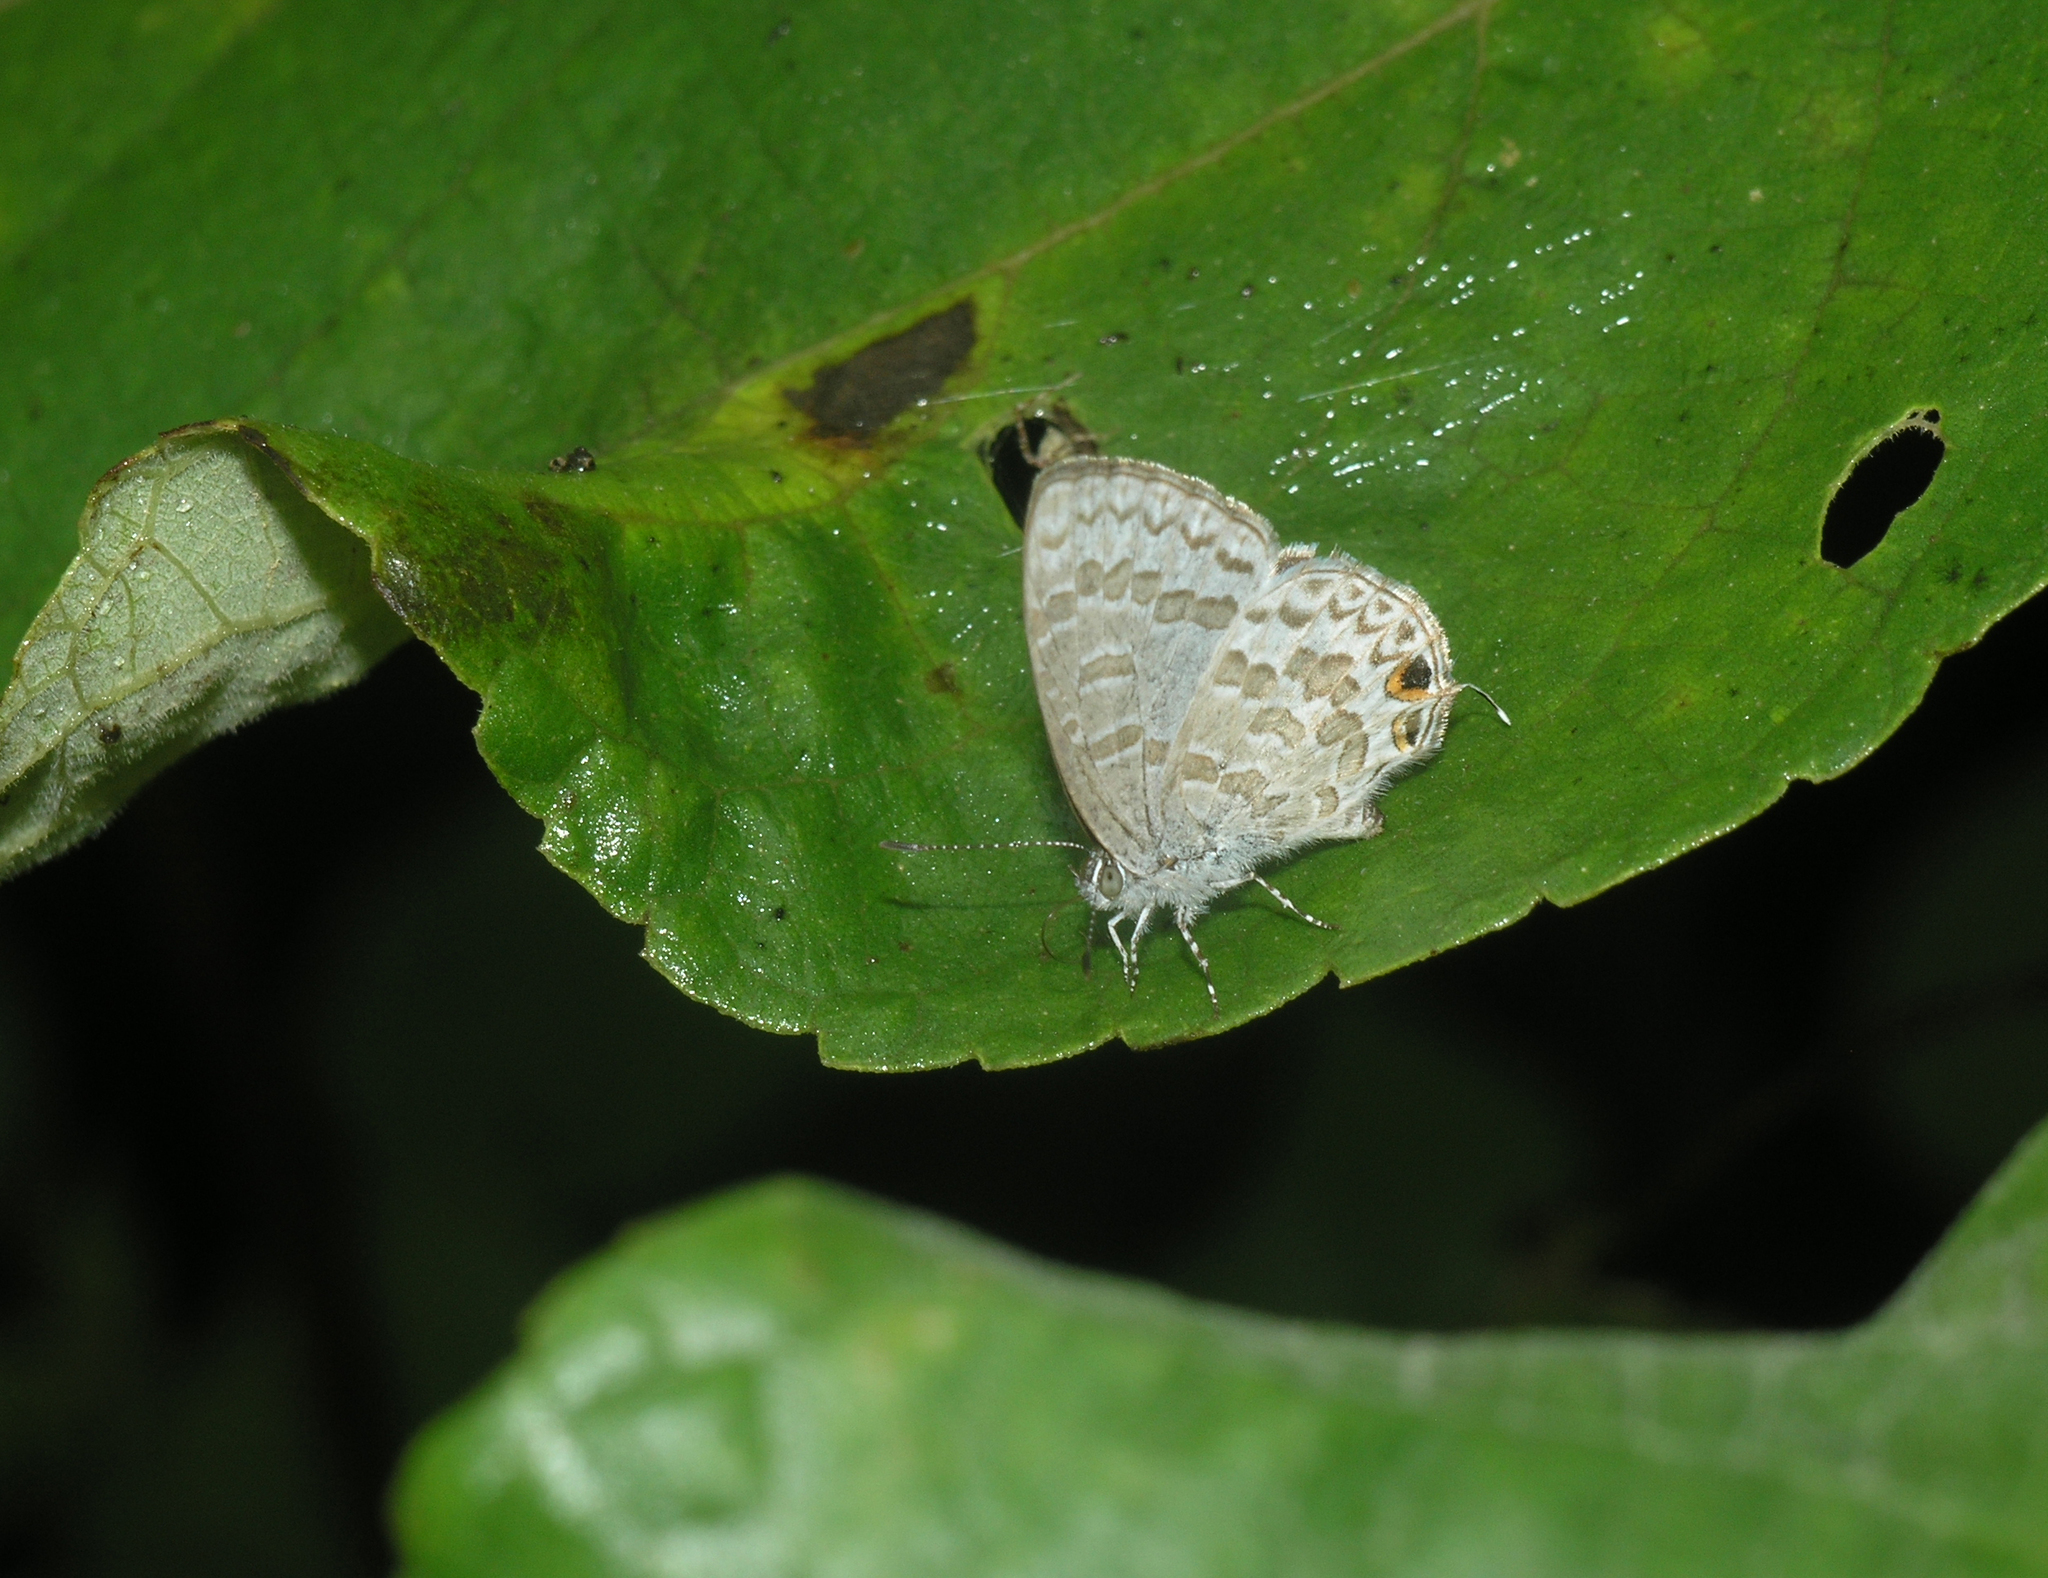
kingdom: Animalia
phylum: Arthropoda
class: Insecta
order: Lepidoptera
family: Lycaenidae
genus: Catopyrops
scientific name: Catopyrops ancyra
